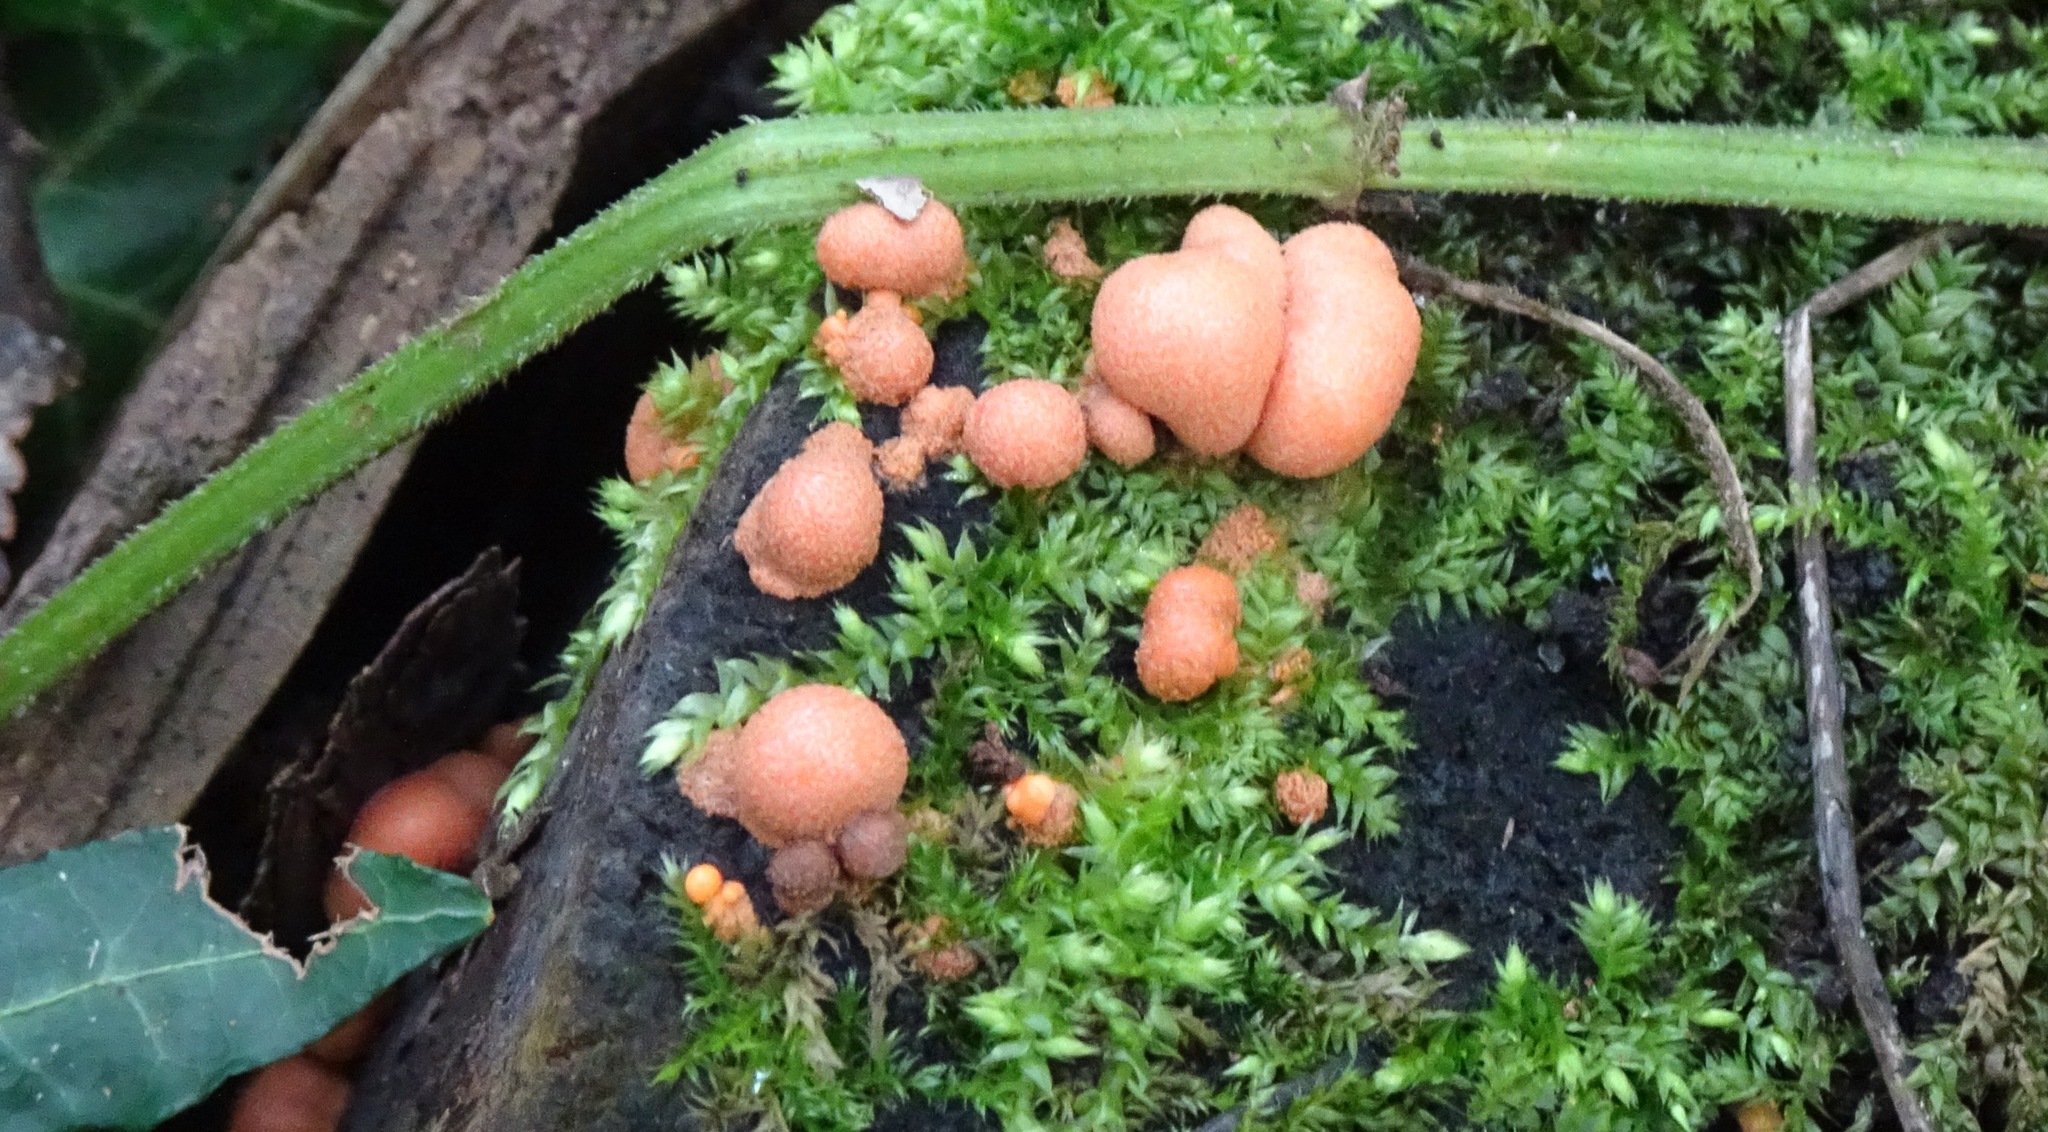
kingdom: Protozoa
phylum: Mycetozoa
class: Myxomycetes
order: Cribrariales
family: Tubiferaceae
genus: Lycogala
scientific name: Lycogala epidendrum
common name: Wolf's milk
